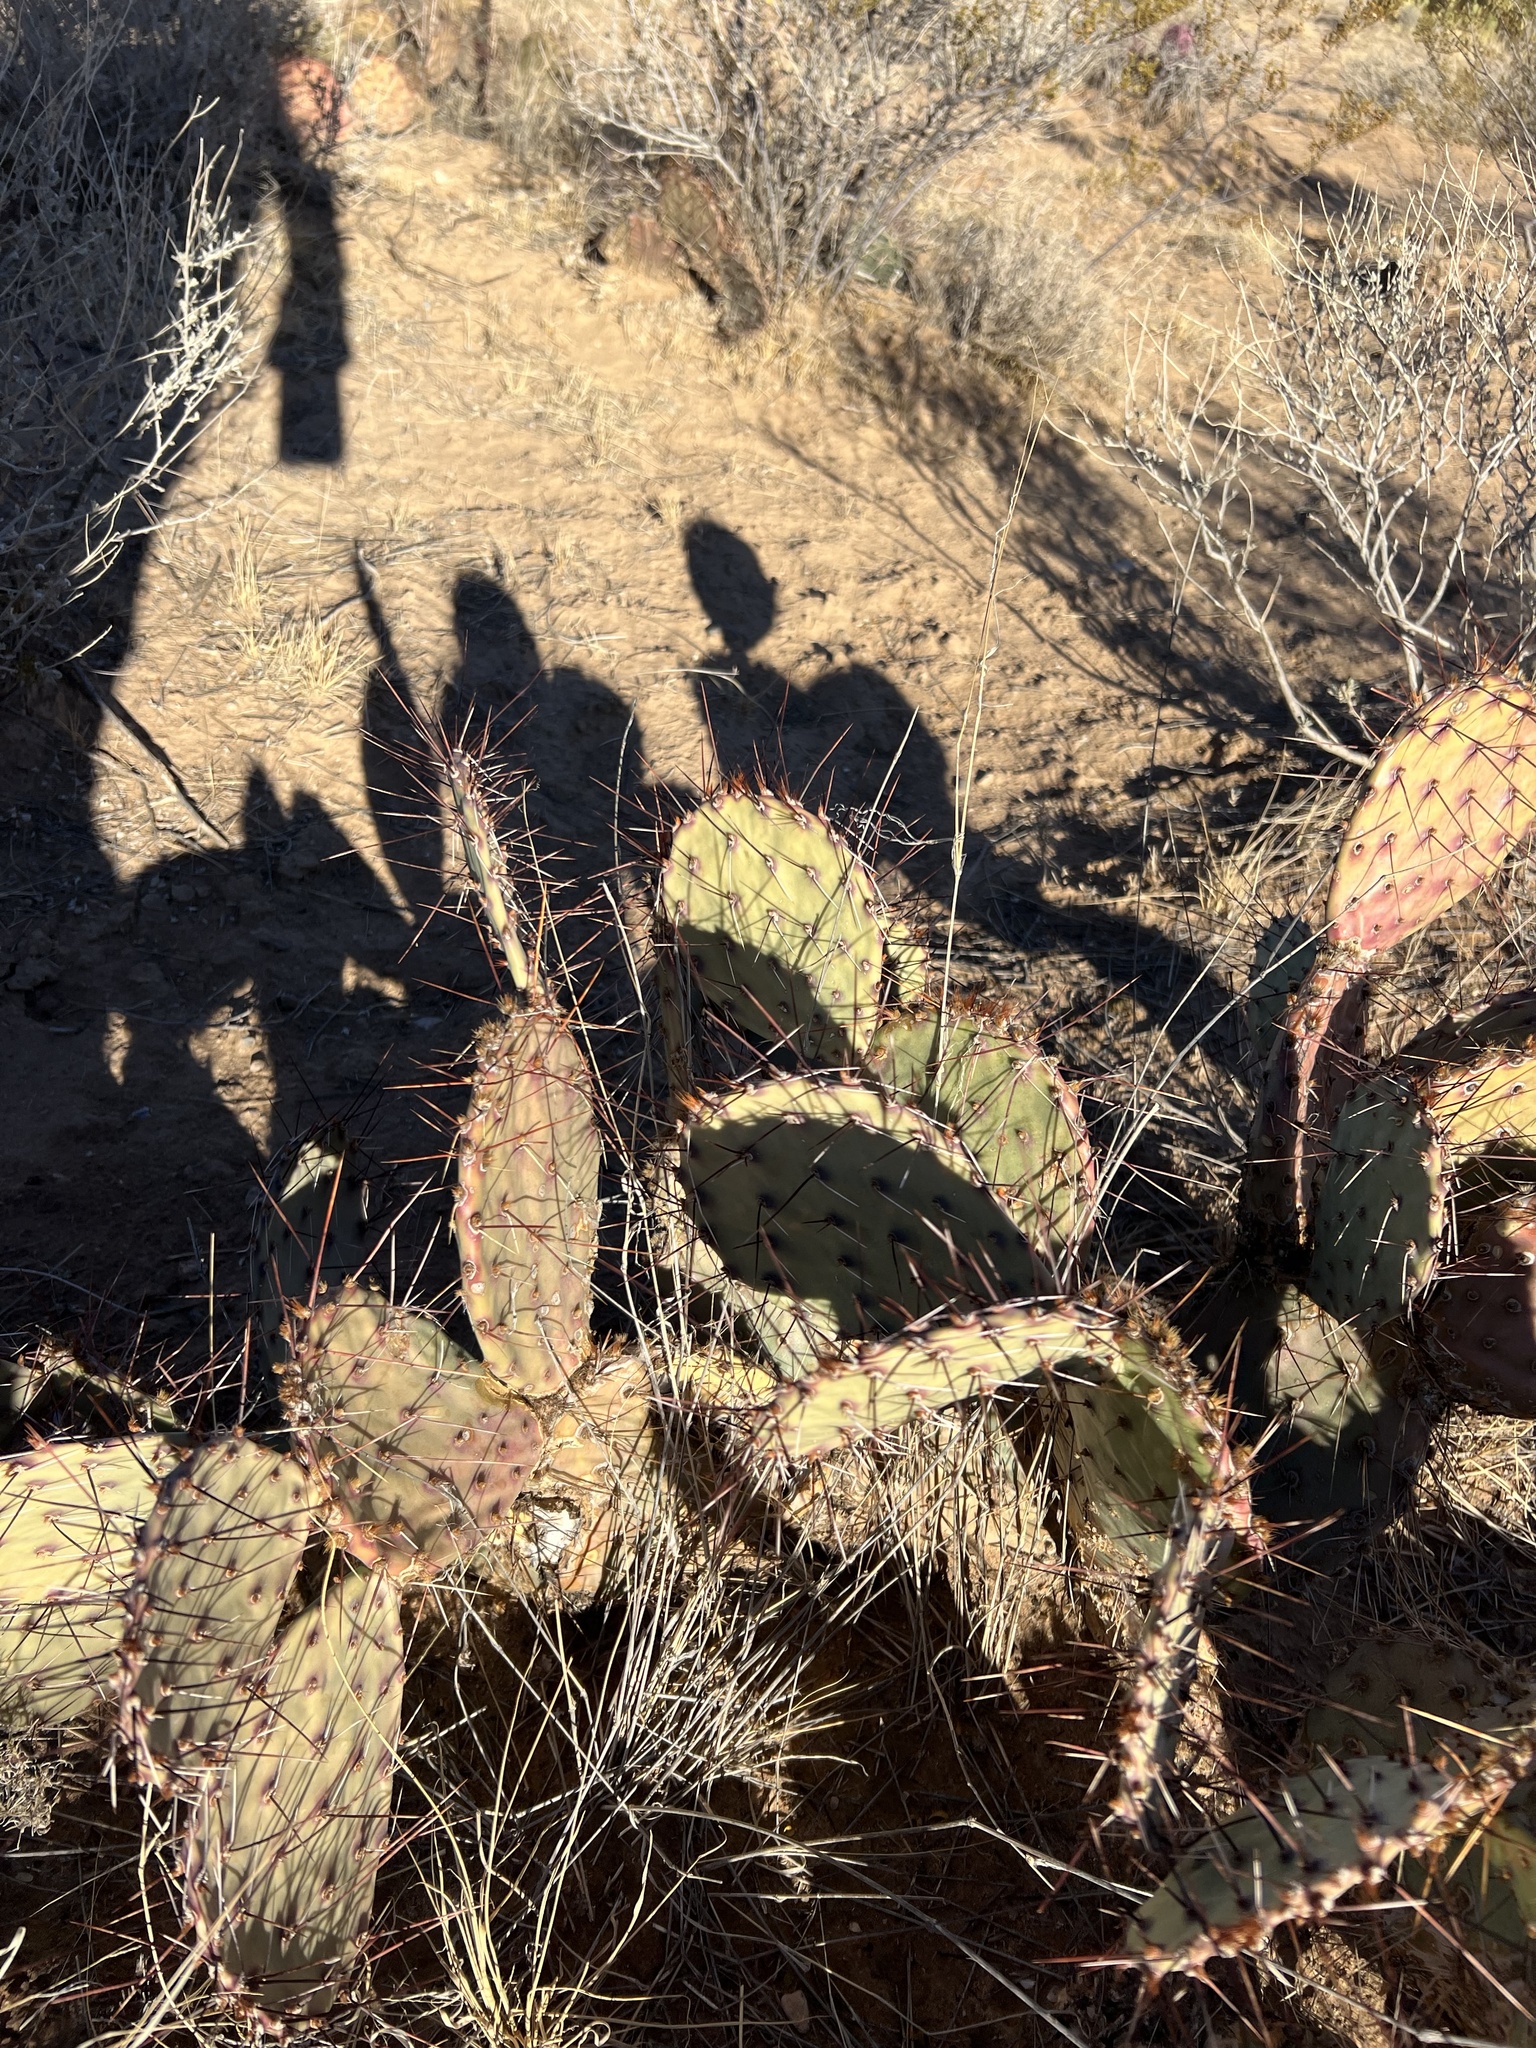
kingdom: Plantae
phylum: Tracheophyta
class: Magnoliopsida
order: Caryophyllales
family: Cactaceae
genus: Opuntia
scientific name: Opuntia phaeacantha
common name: New mexico prickly-pear
